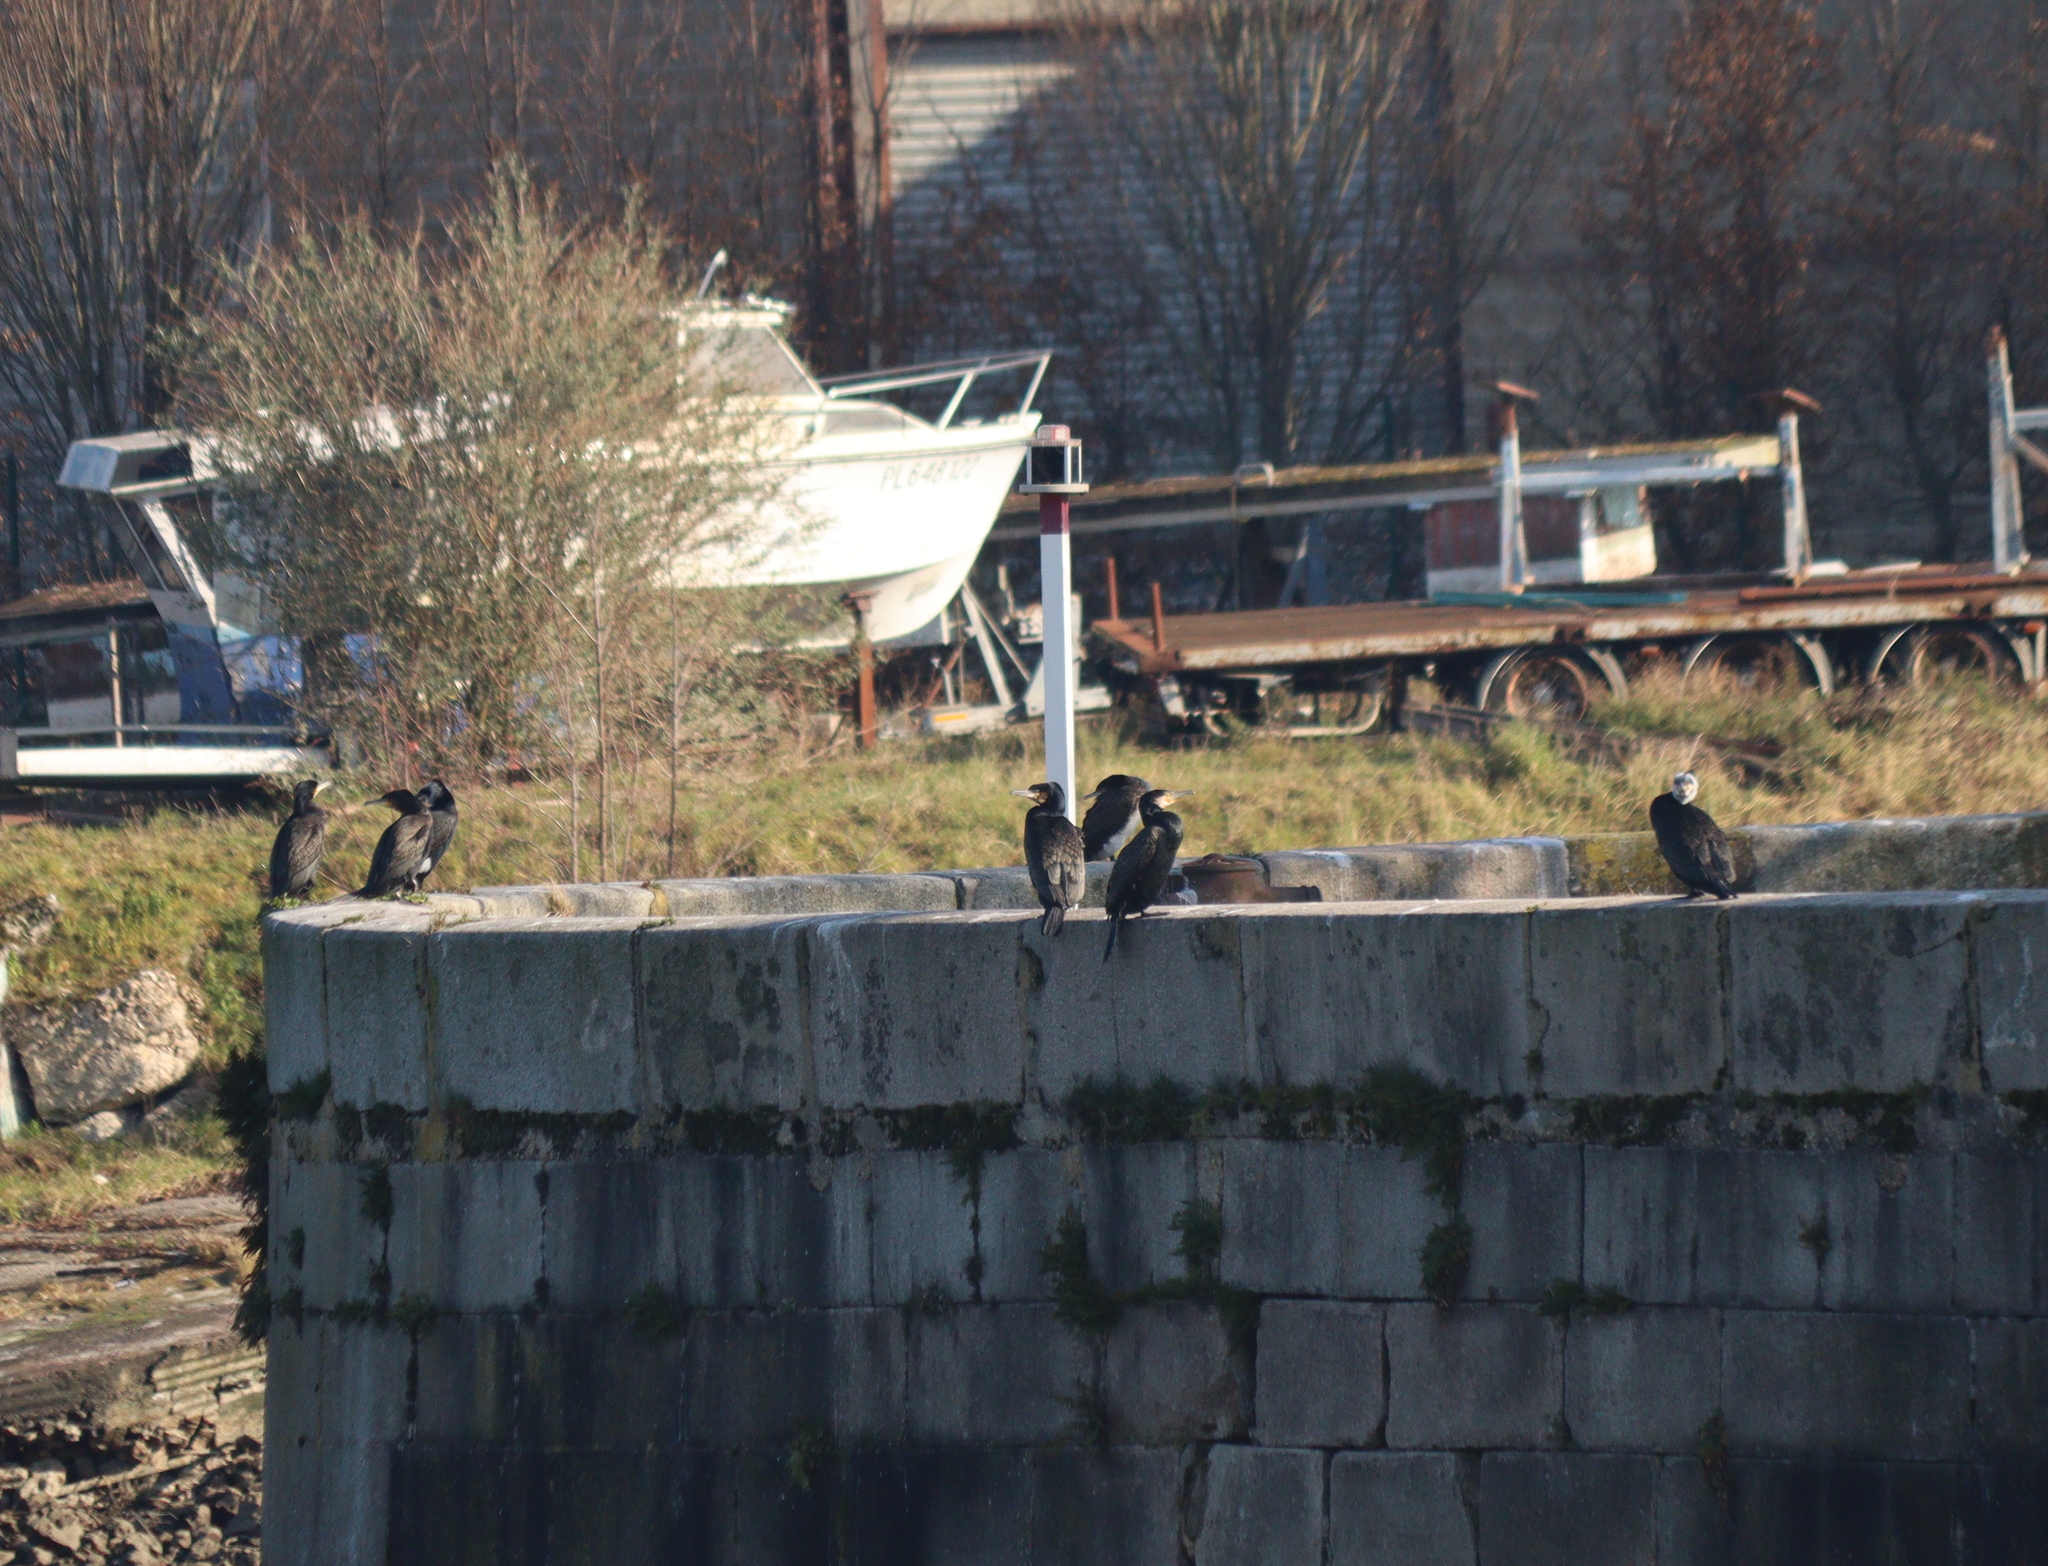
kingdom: Animalia
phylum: Chordata
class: Aves
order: Suliformes
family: Phalacrocoracidae
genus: Phalacrocorax
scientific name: Phalacrocorax carbo
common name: Great cormorant
